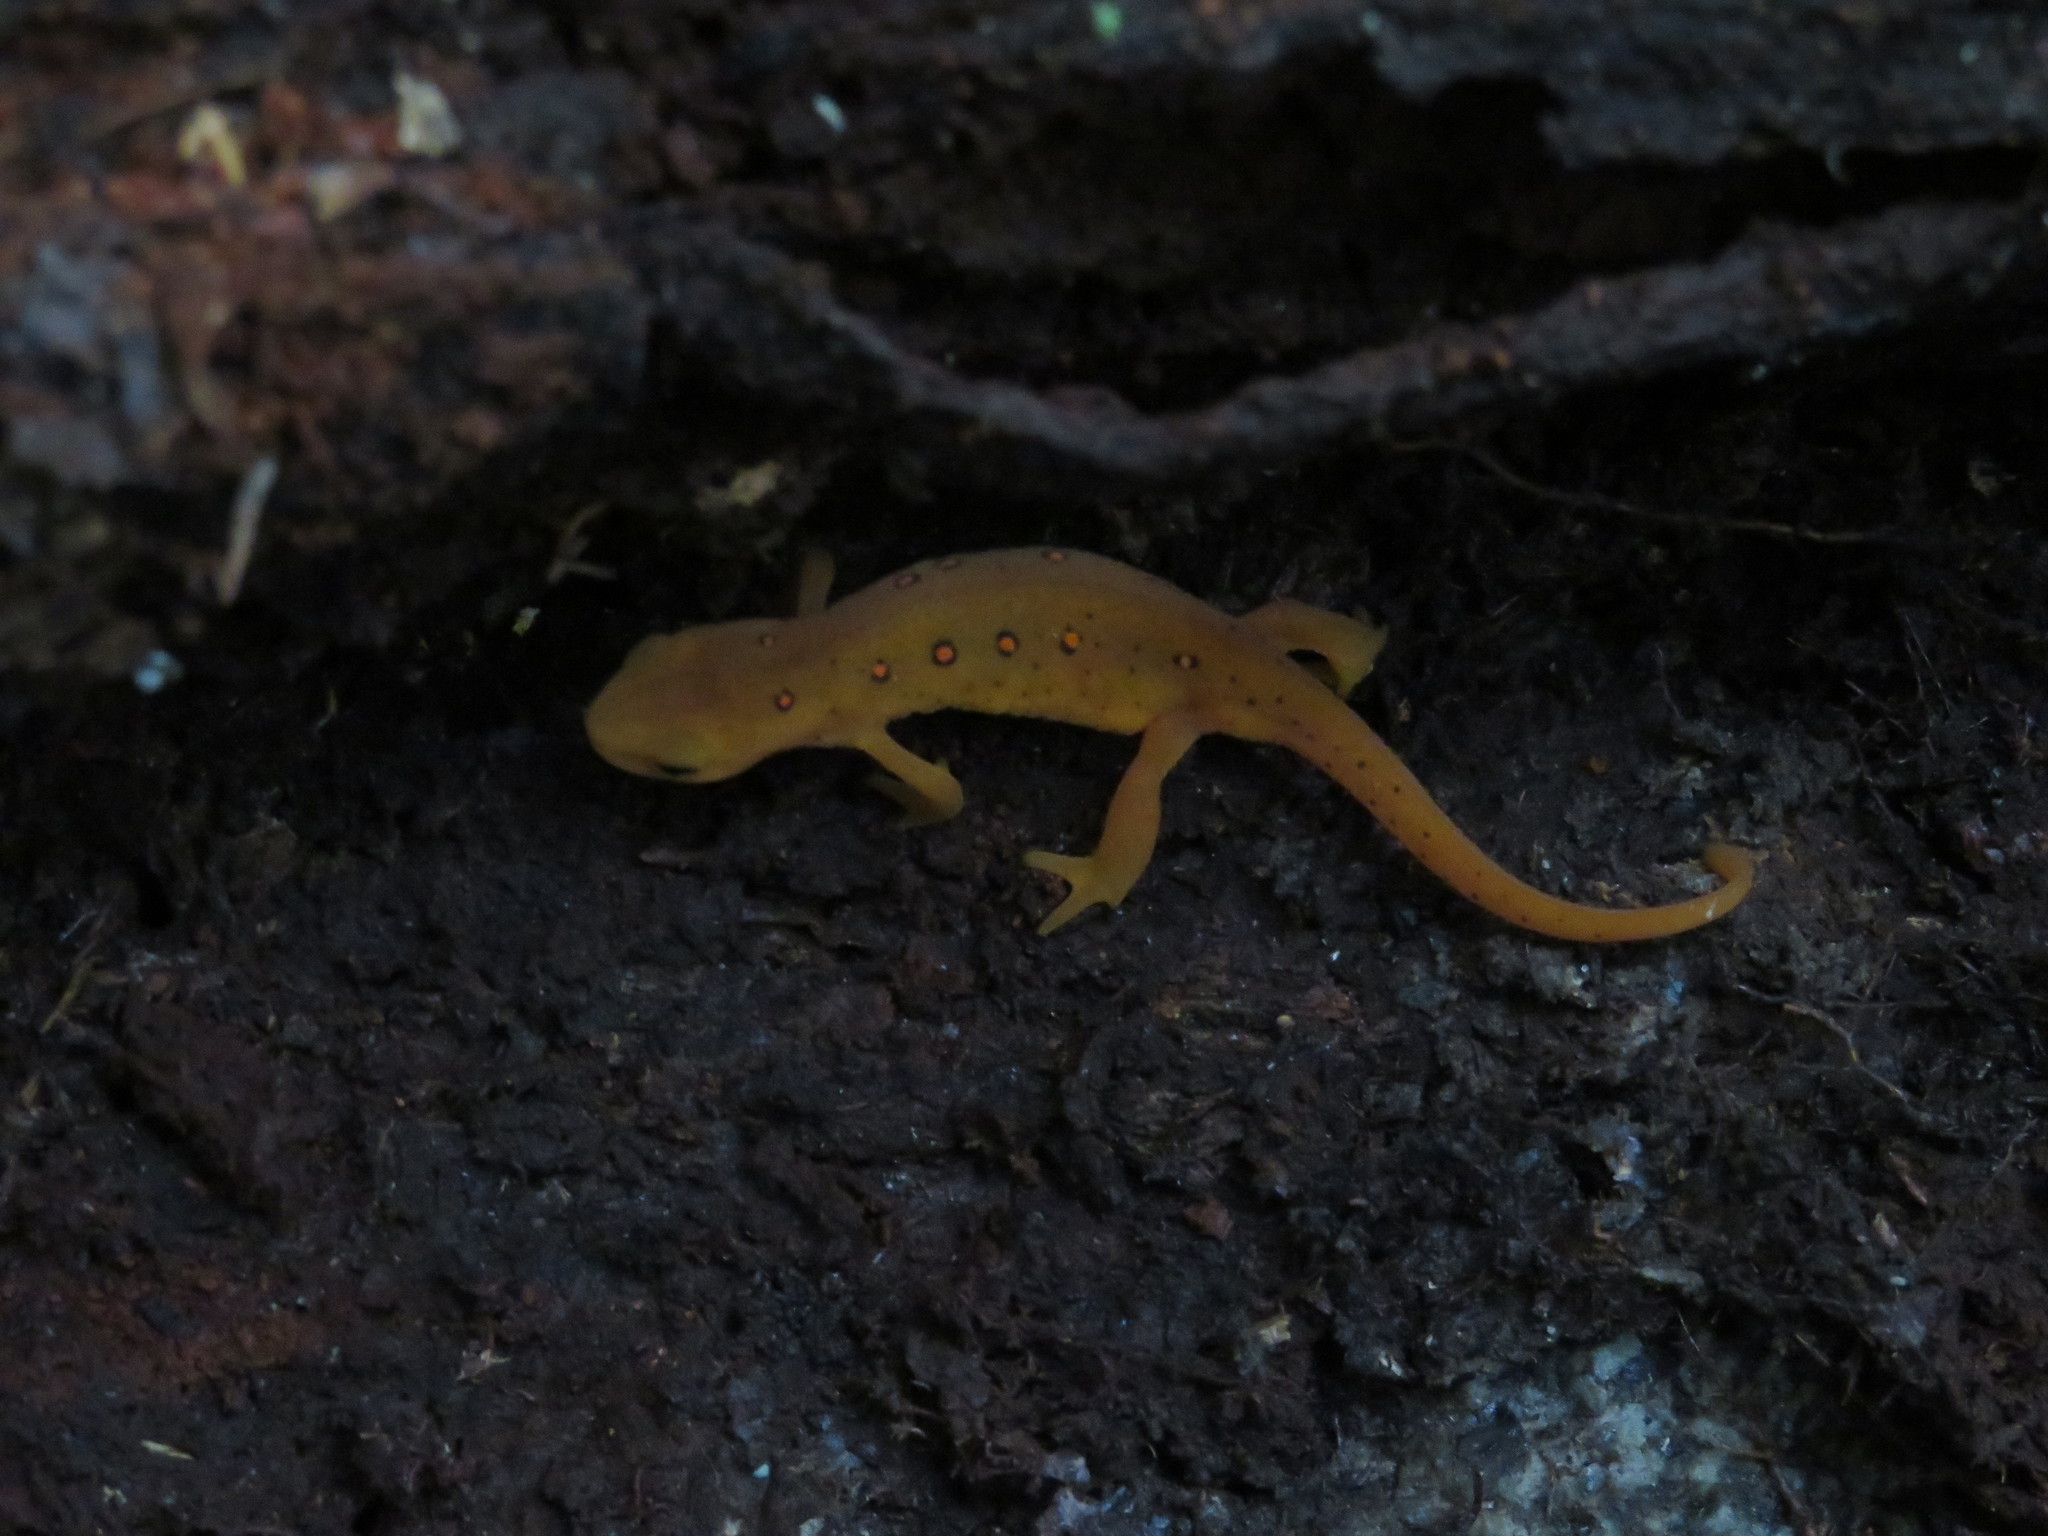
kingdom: Animalia
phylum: Chordata
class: Amphibia
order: Caudata
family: Salamandridae
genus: Notophthalmus
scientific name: Notophthalmus viridescens
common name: Eastern newt
